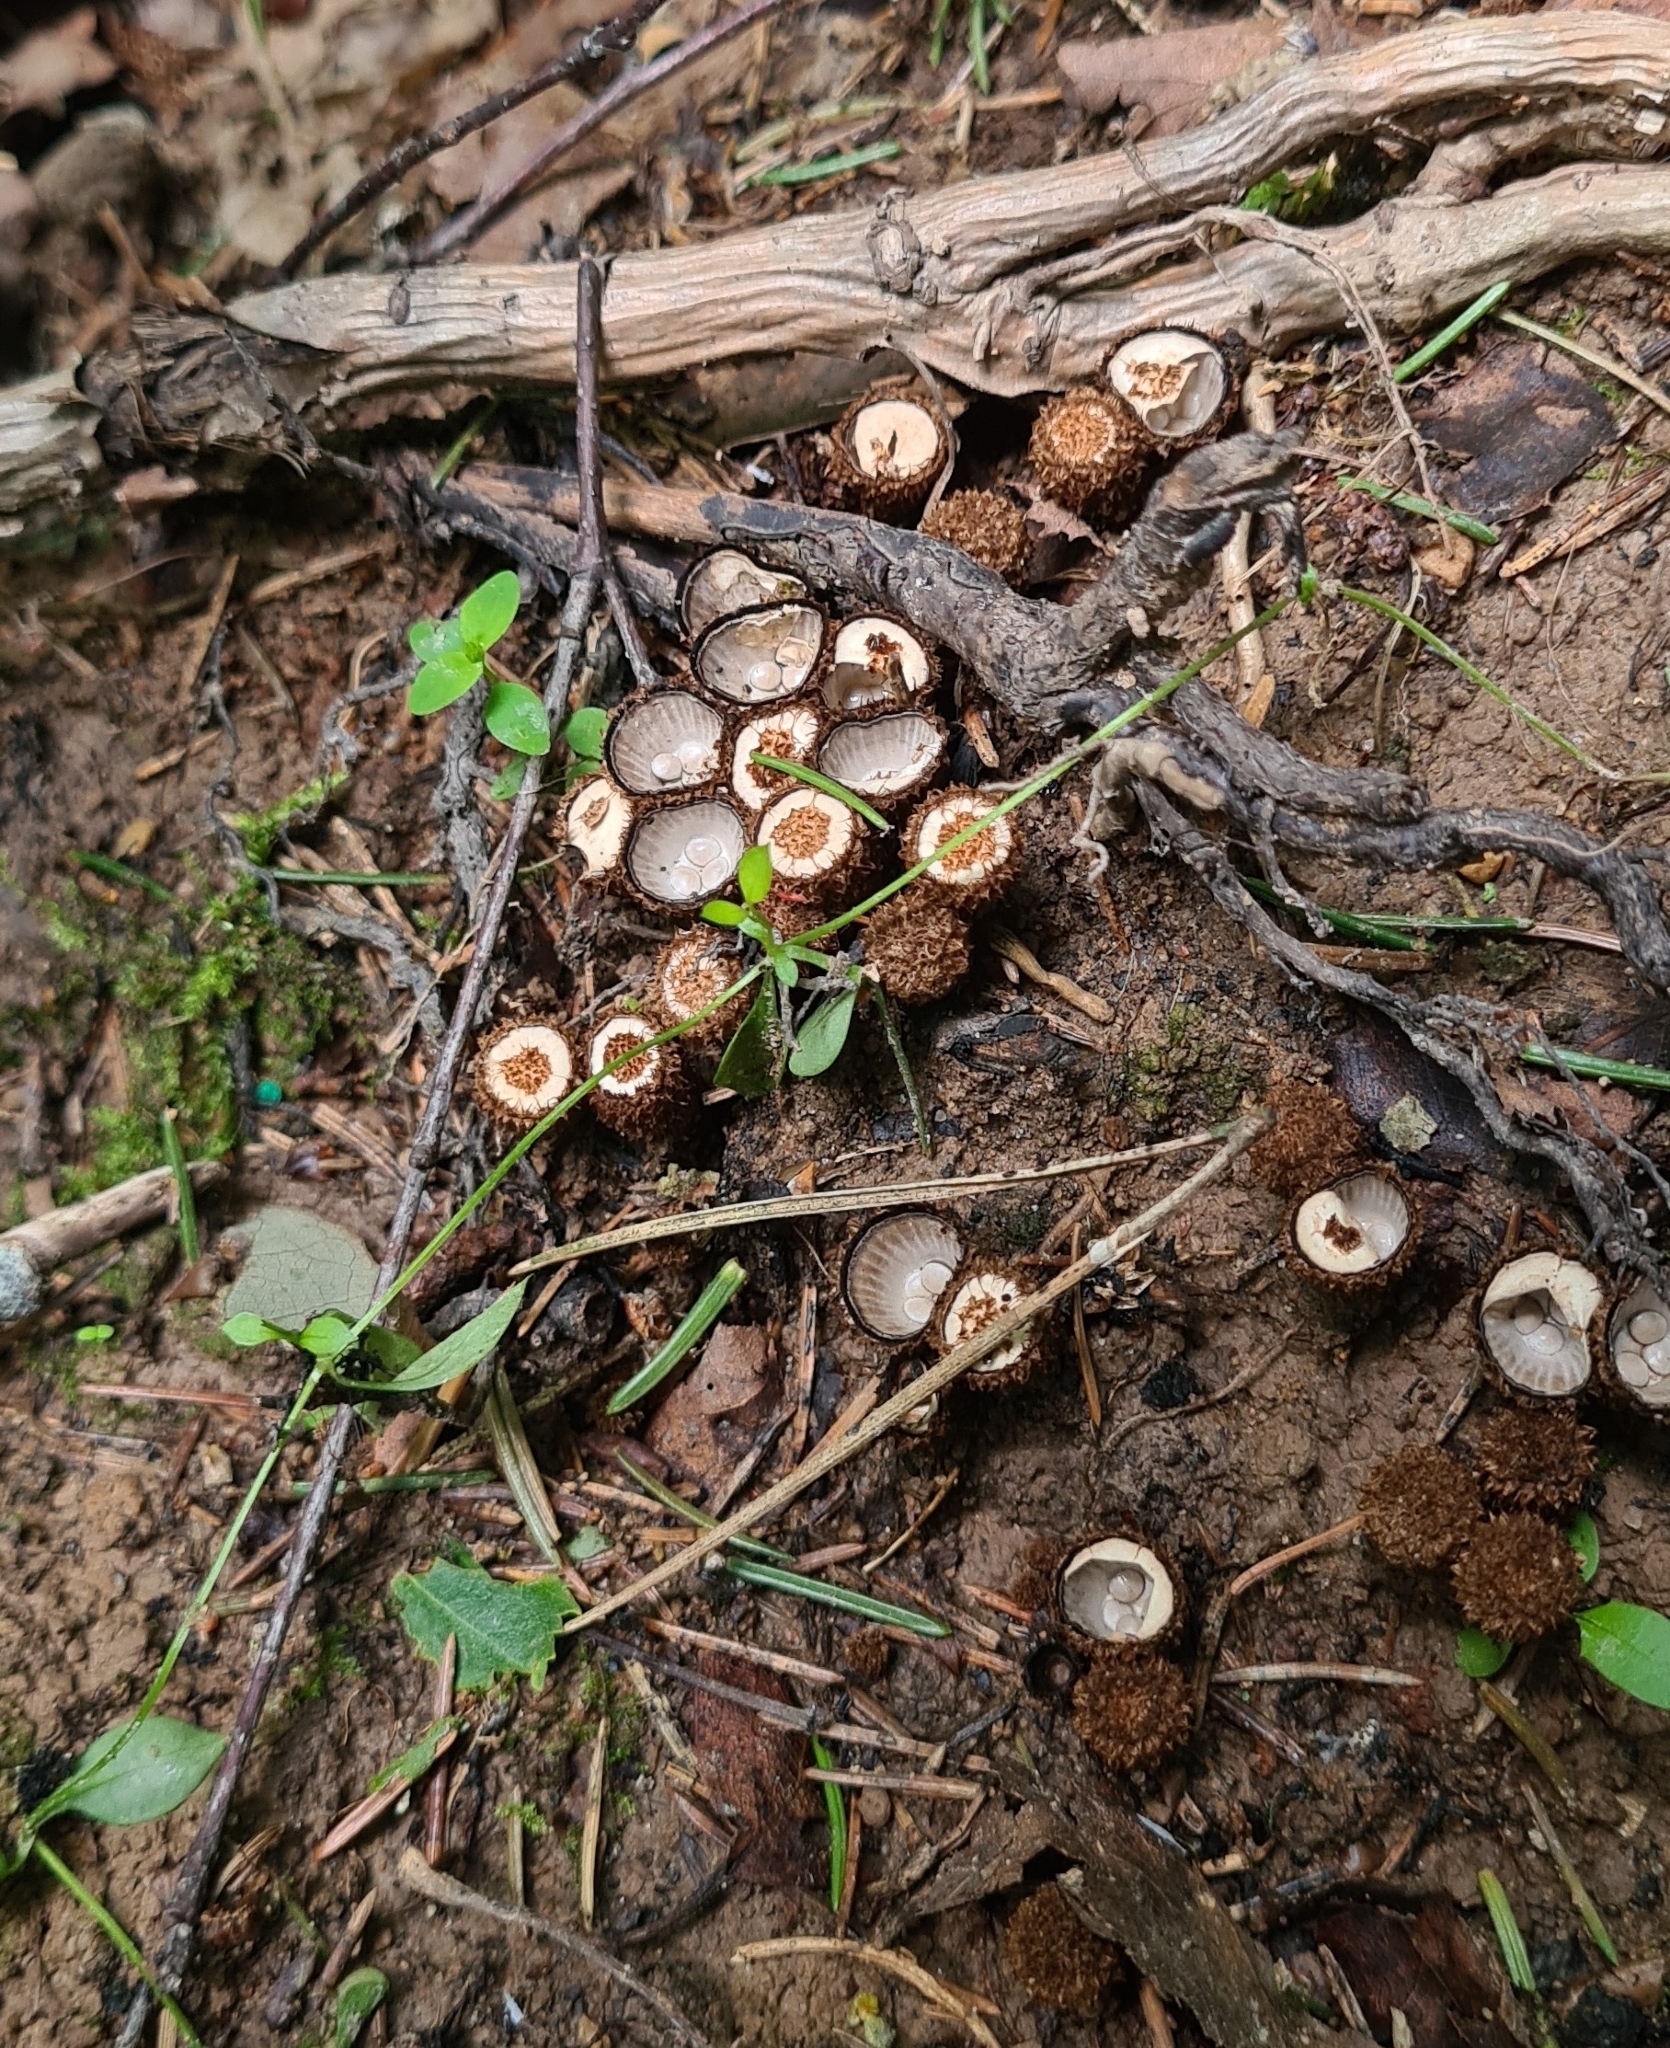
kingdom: Fungi
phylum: Basidiomycota
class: Agaricomycetes
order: Agaricales
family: Agaricaceae
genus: Cyathus
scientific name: Cyathus striatus
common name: Fluted bird's nest
